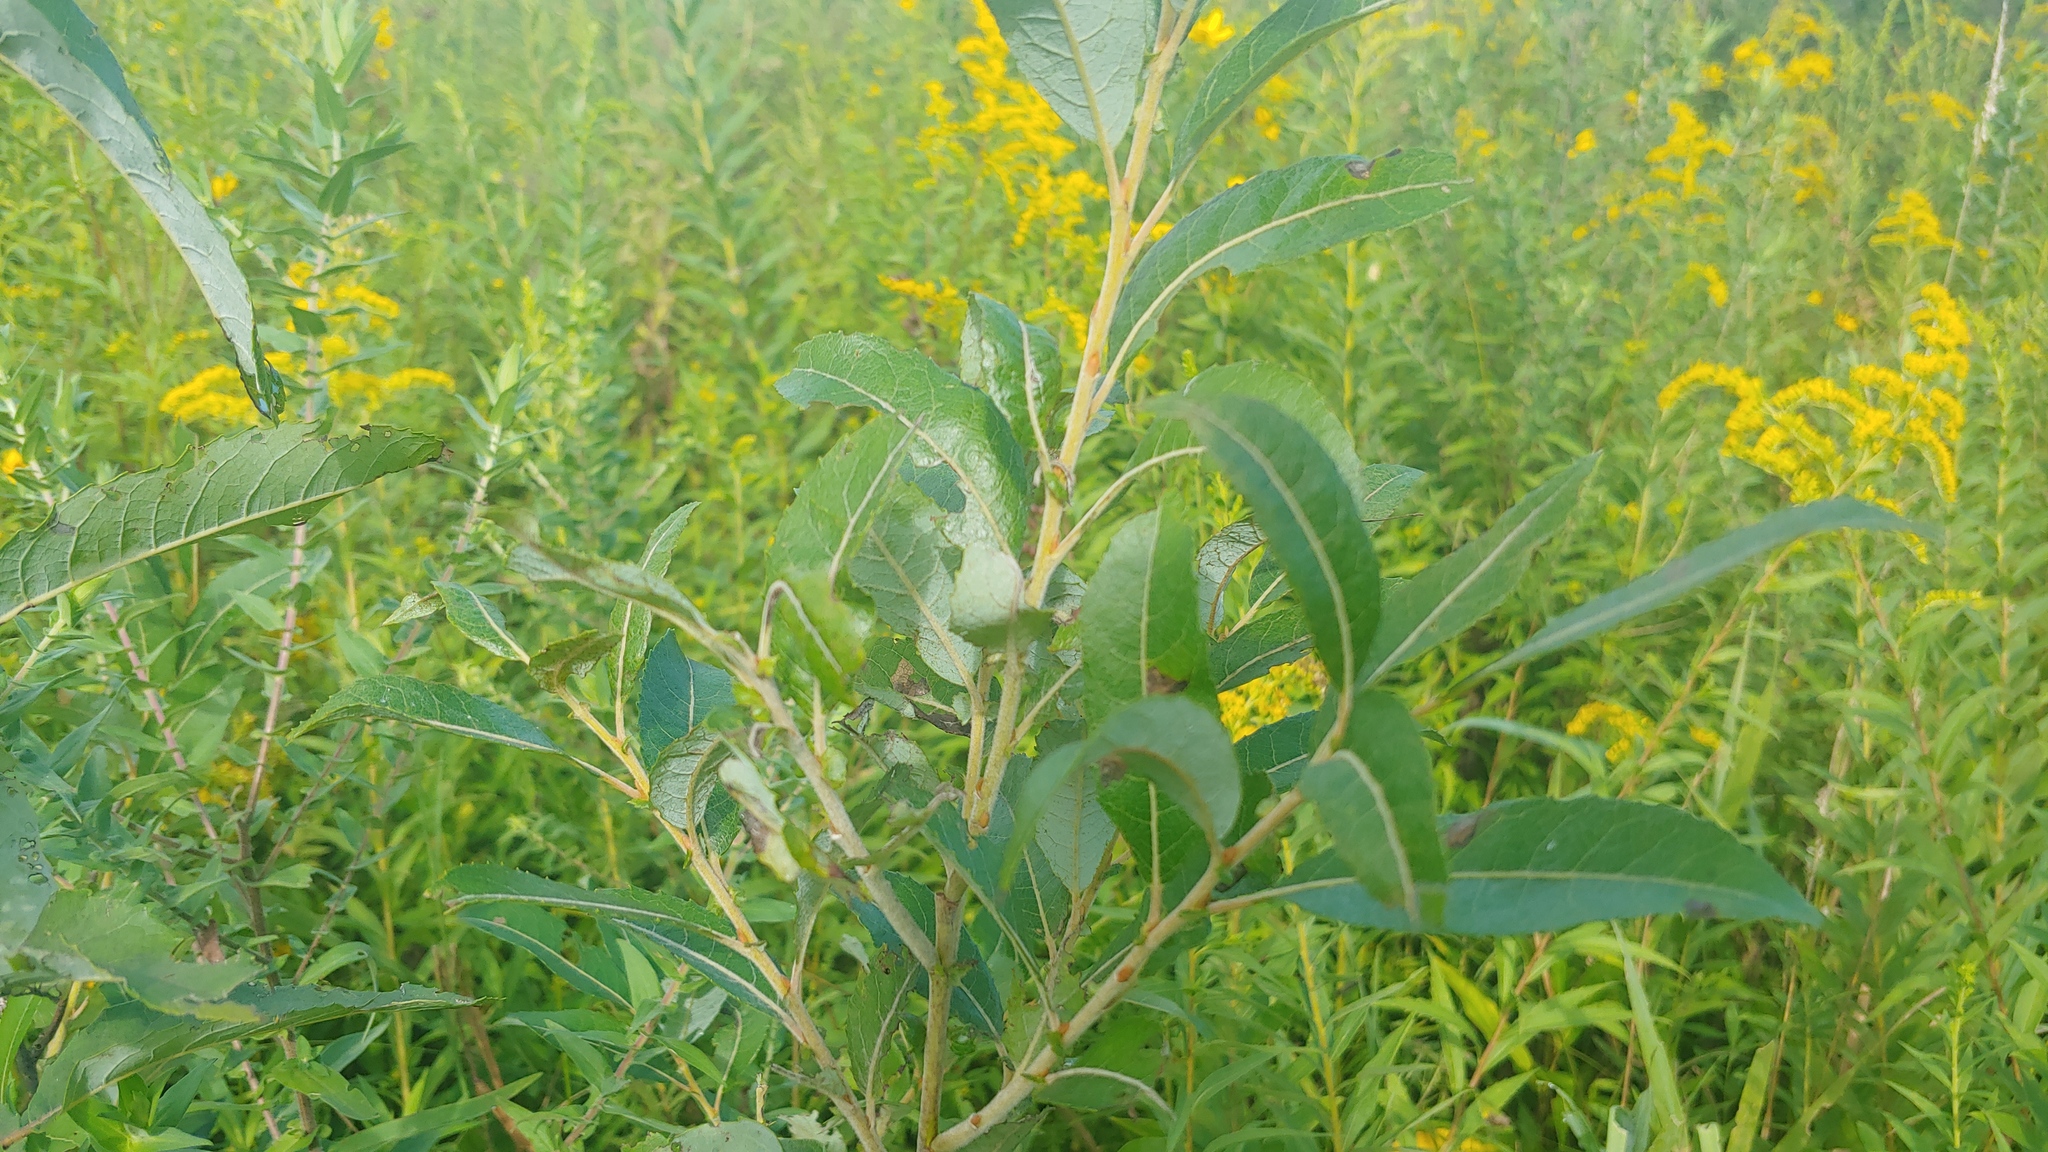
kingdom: Plantae
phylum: Tracheophyta
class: Magnoliopsida
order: Malpighiales
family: Salicaceae
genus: Salix
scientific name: Salix humilis
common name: Prairie willow
